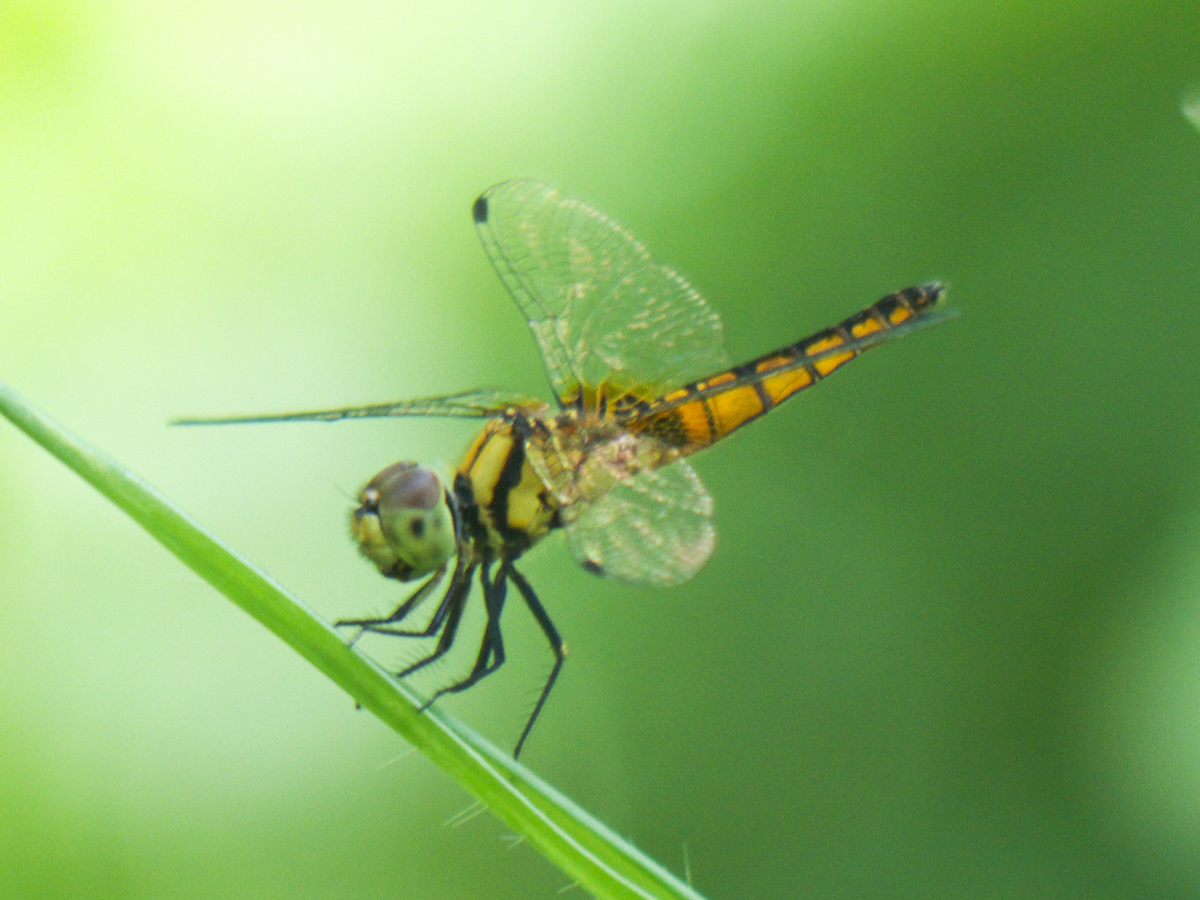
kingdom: Animalia
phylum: Arthropoda
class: Insecta
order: Odonata
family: Libellulidae
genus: Aethriamanta
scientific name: Aethriamanta brevipennis
